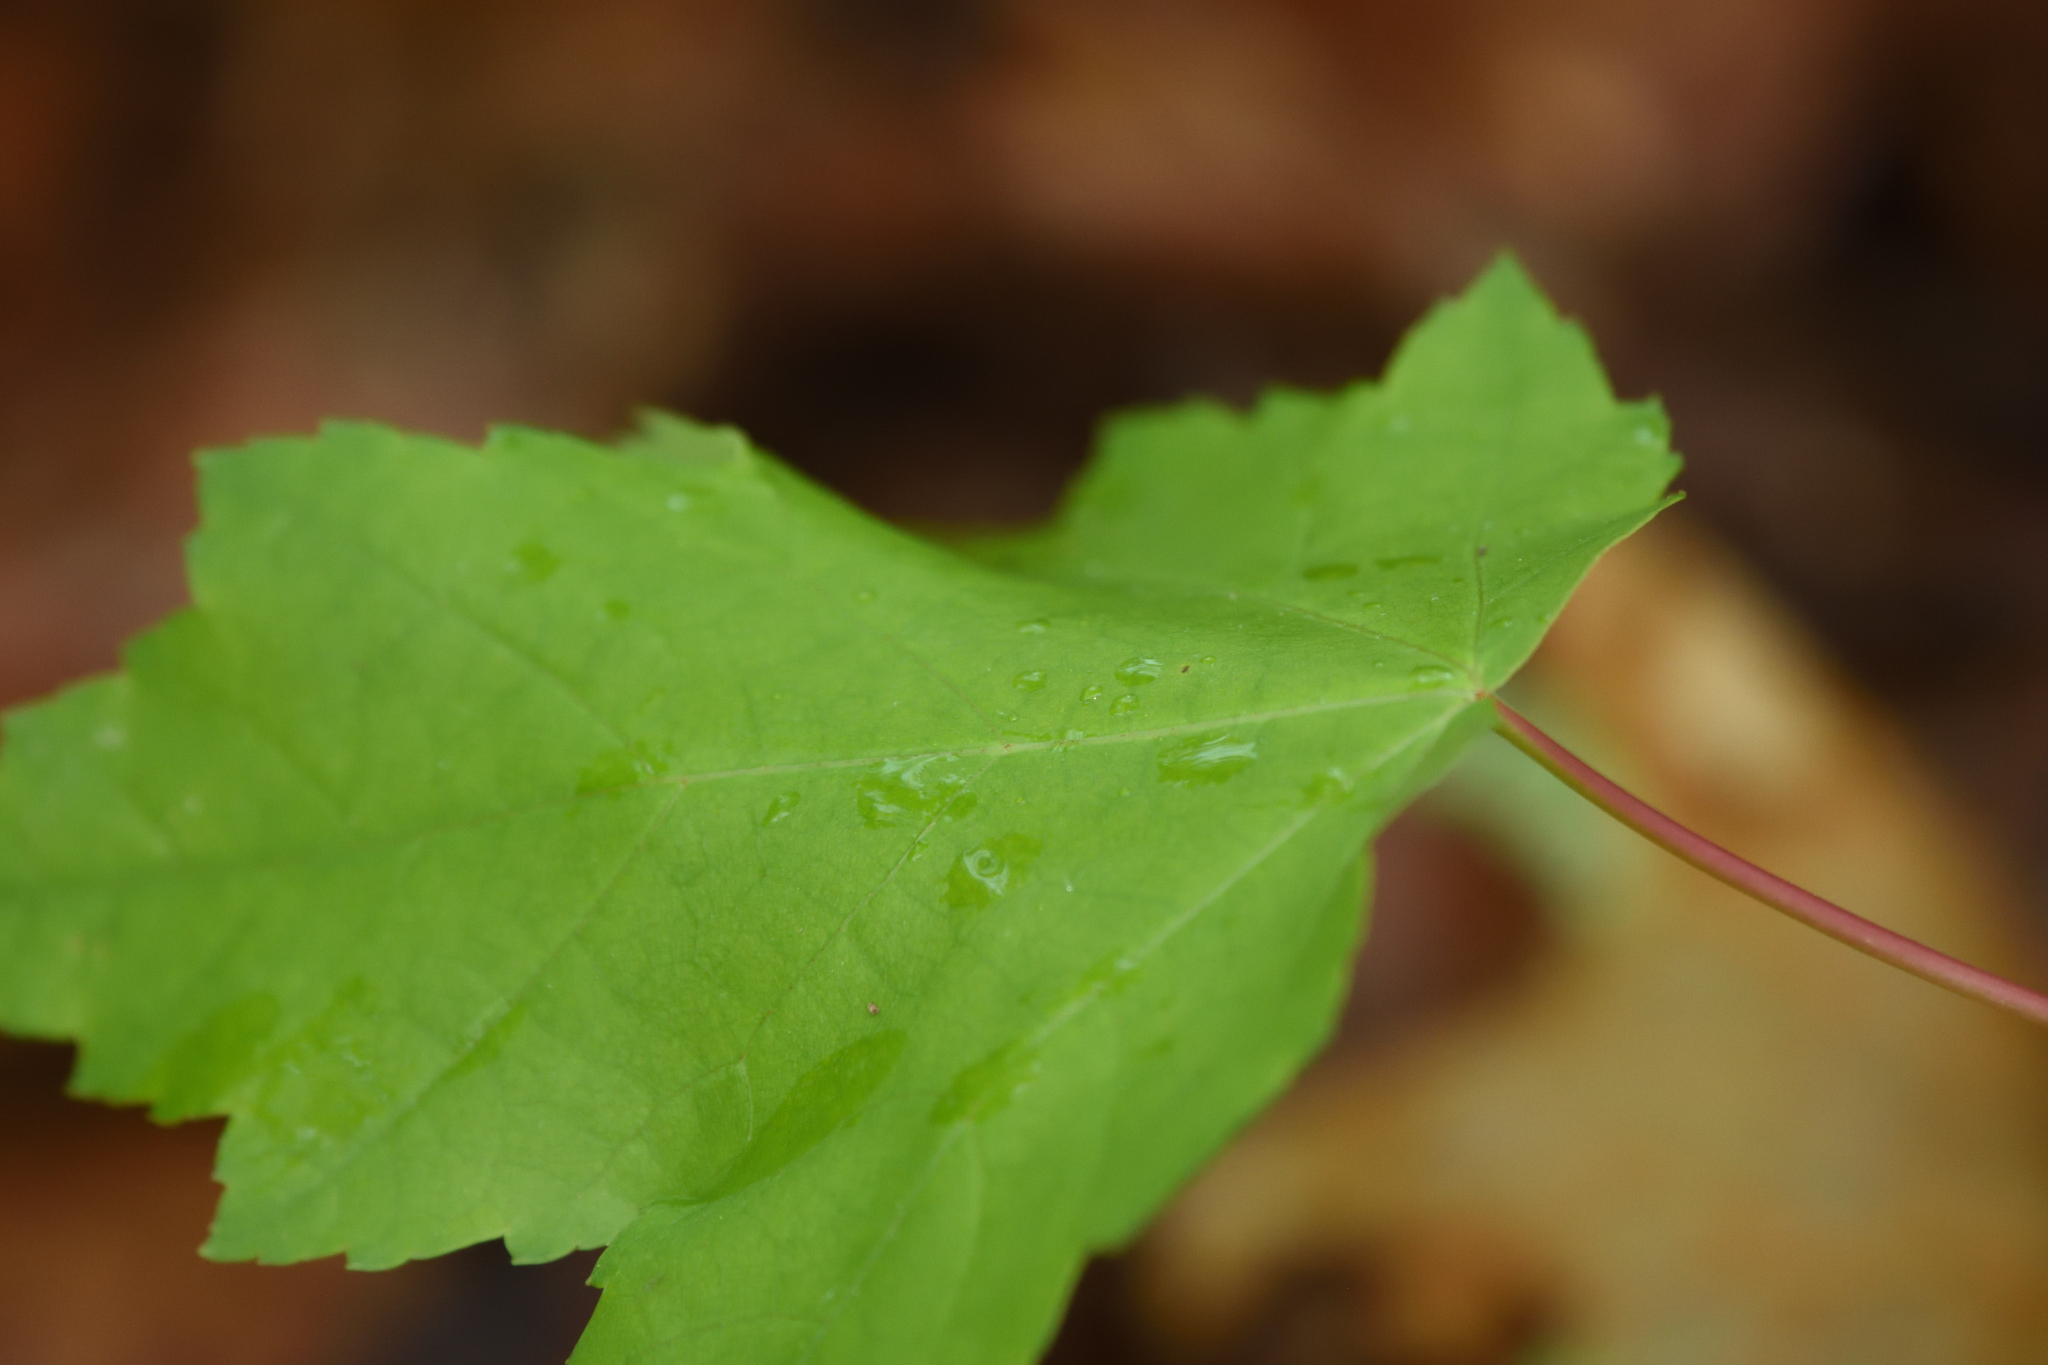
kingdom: Plantae
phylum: Tracheophyta
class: Magnoliopsida
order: Sapindales
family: Sapindaceae
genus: Acer
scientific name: Acer rubrum
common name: Red maple
